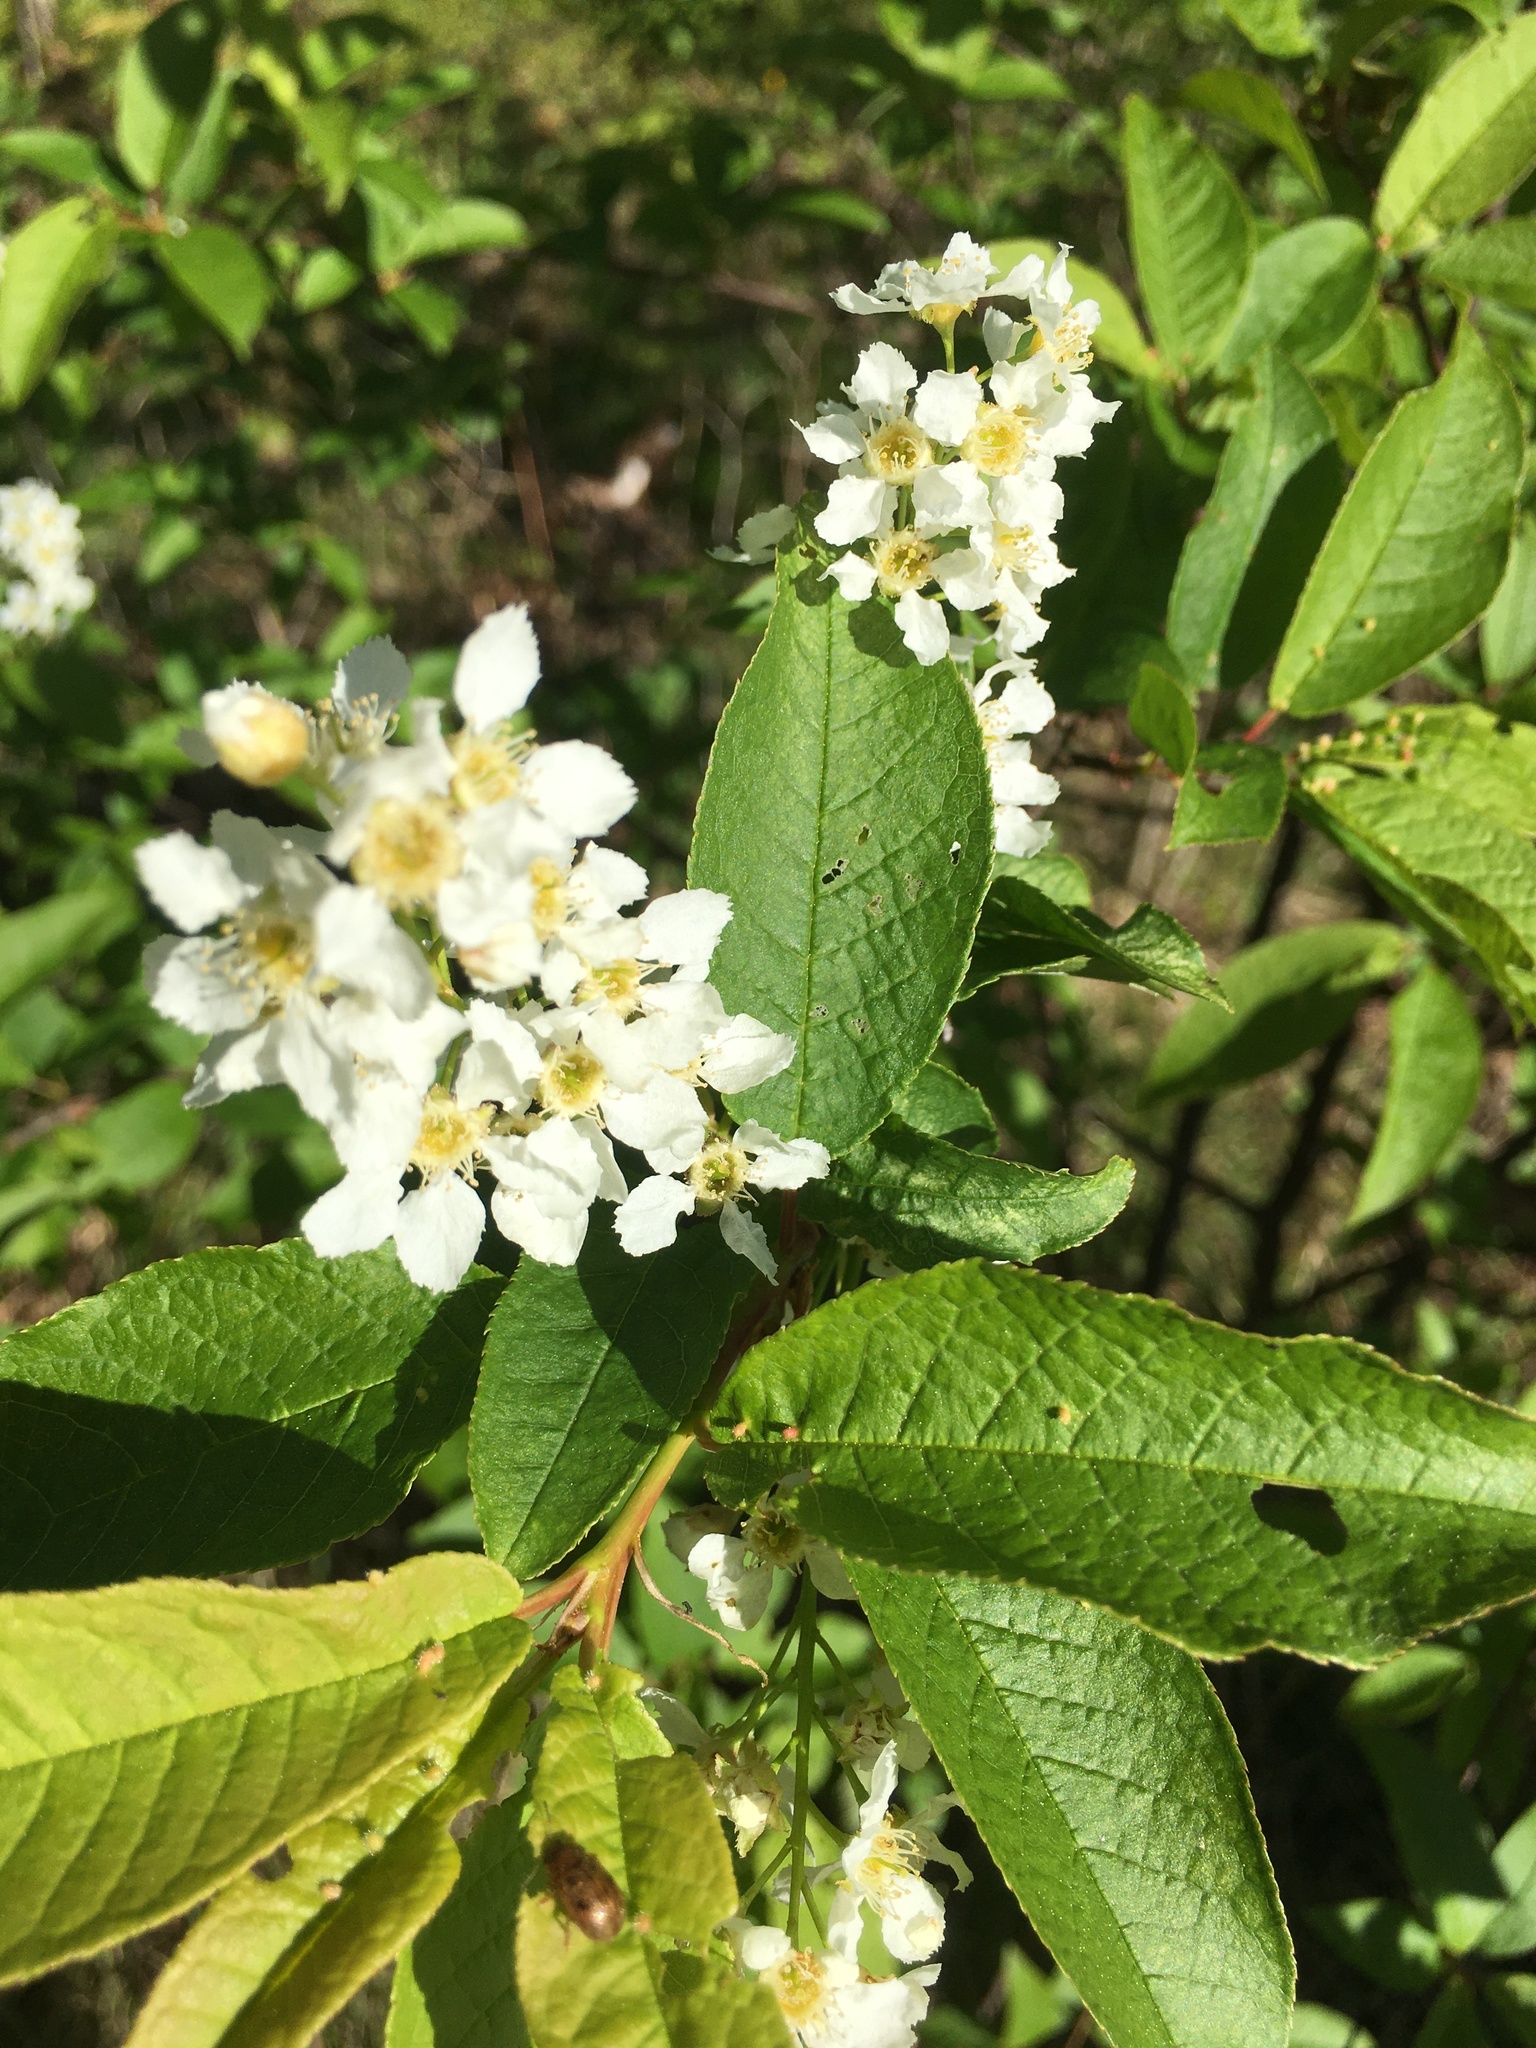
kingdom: Plantae
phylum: Tracheophyta
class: Magnoliopsida
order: Rosales
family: Rosaceae
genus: Prunus
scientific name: Prunus padus
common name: Bird cherry
